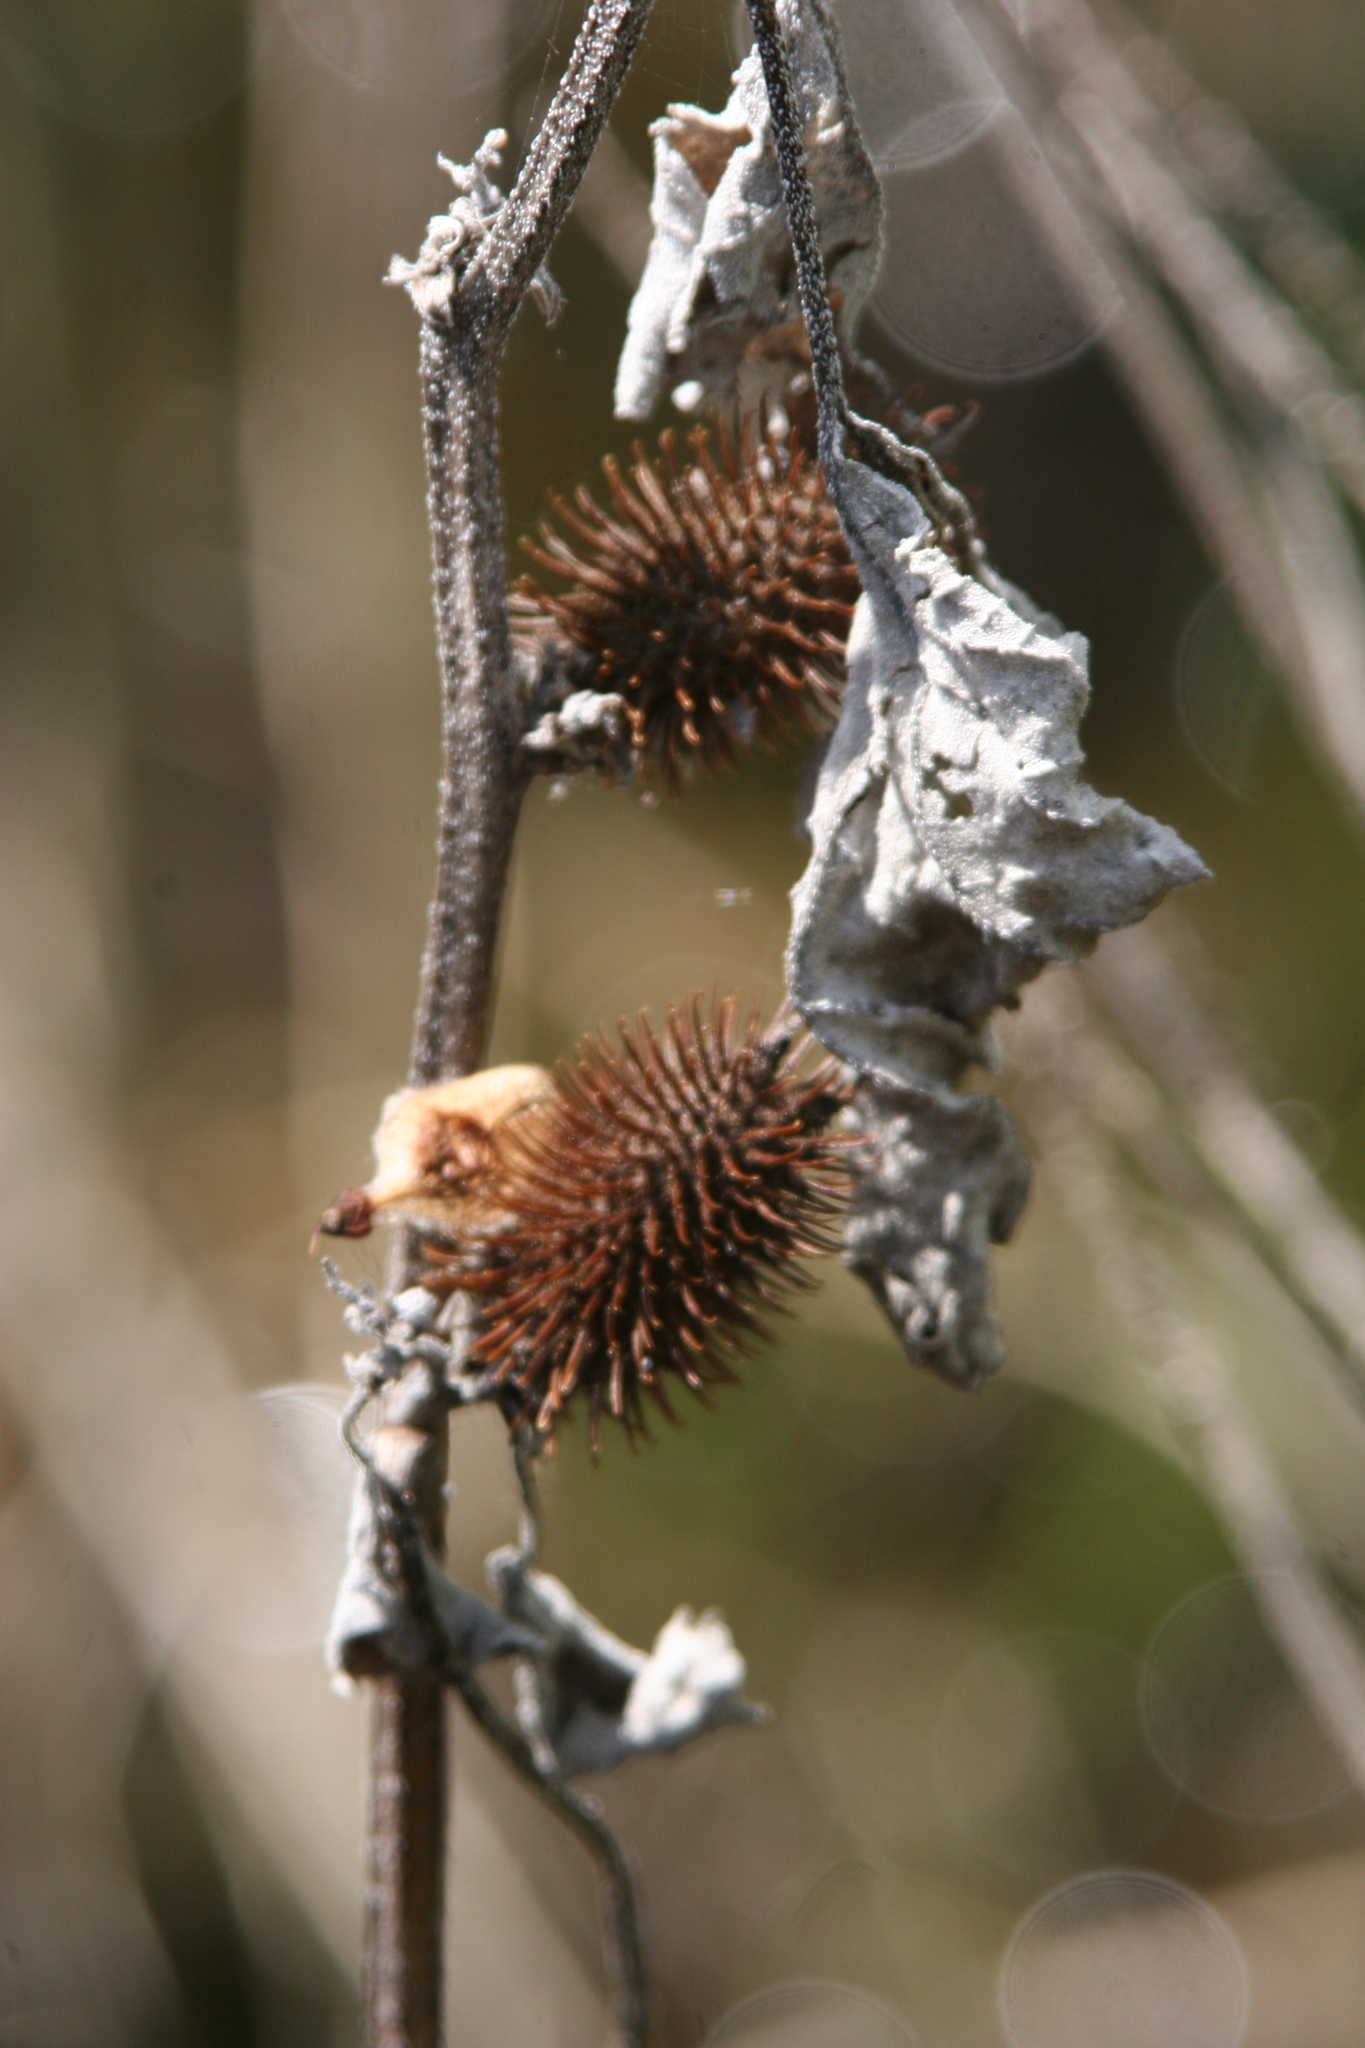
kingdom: Plantae
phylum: Tracheophyta
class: Magnoliopsida
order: Asterales
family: Asteraceae
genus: Xanthium
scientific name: Xanthium strumarium
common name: Rough cocklebur
